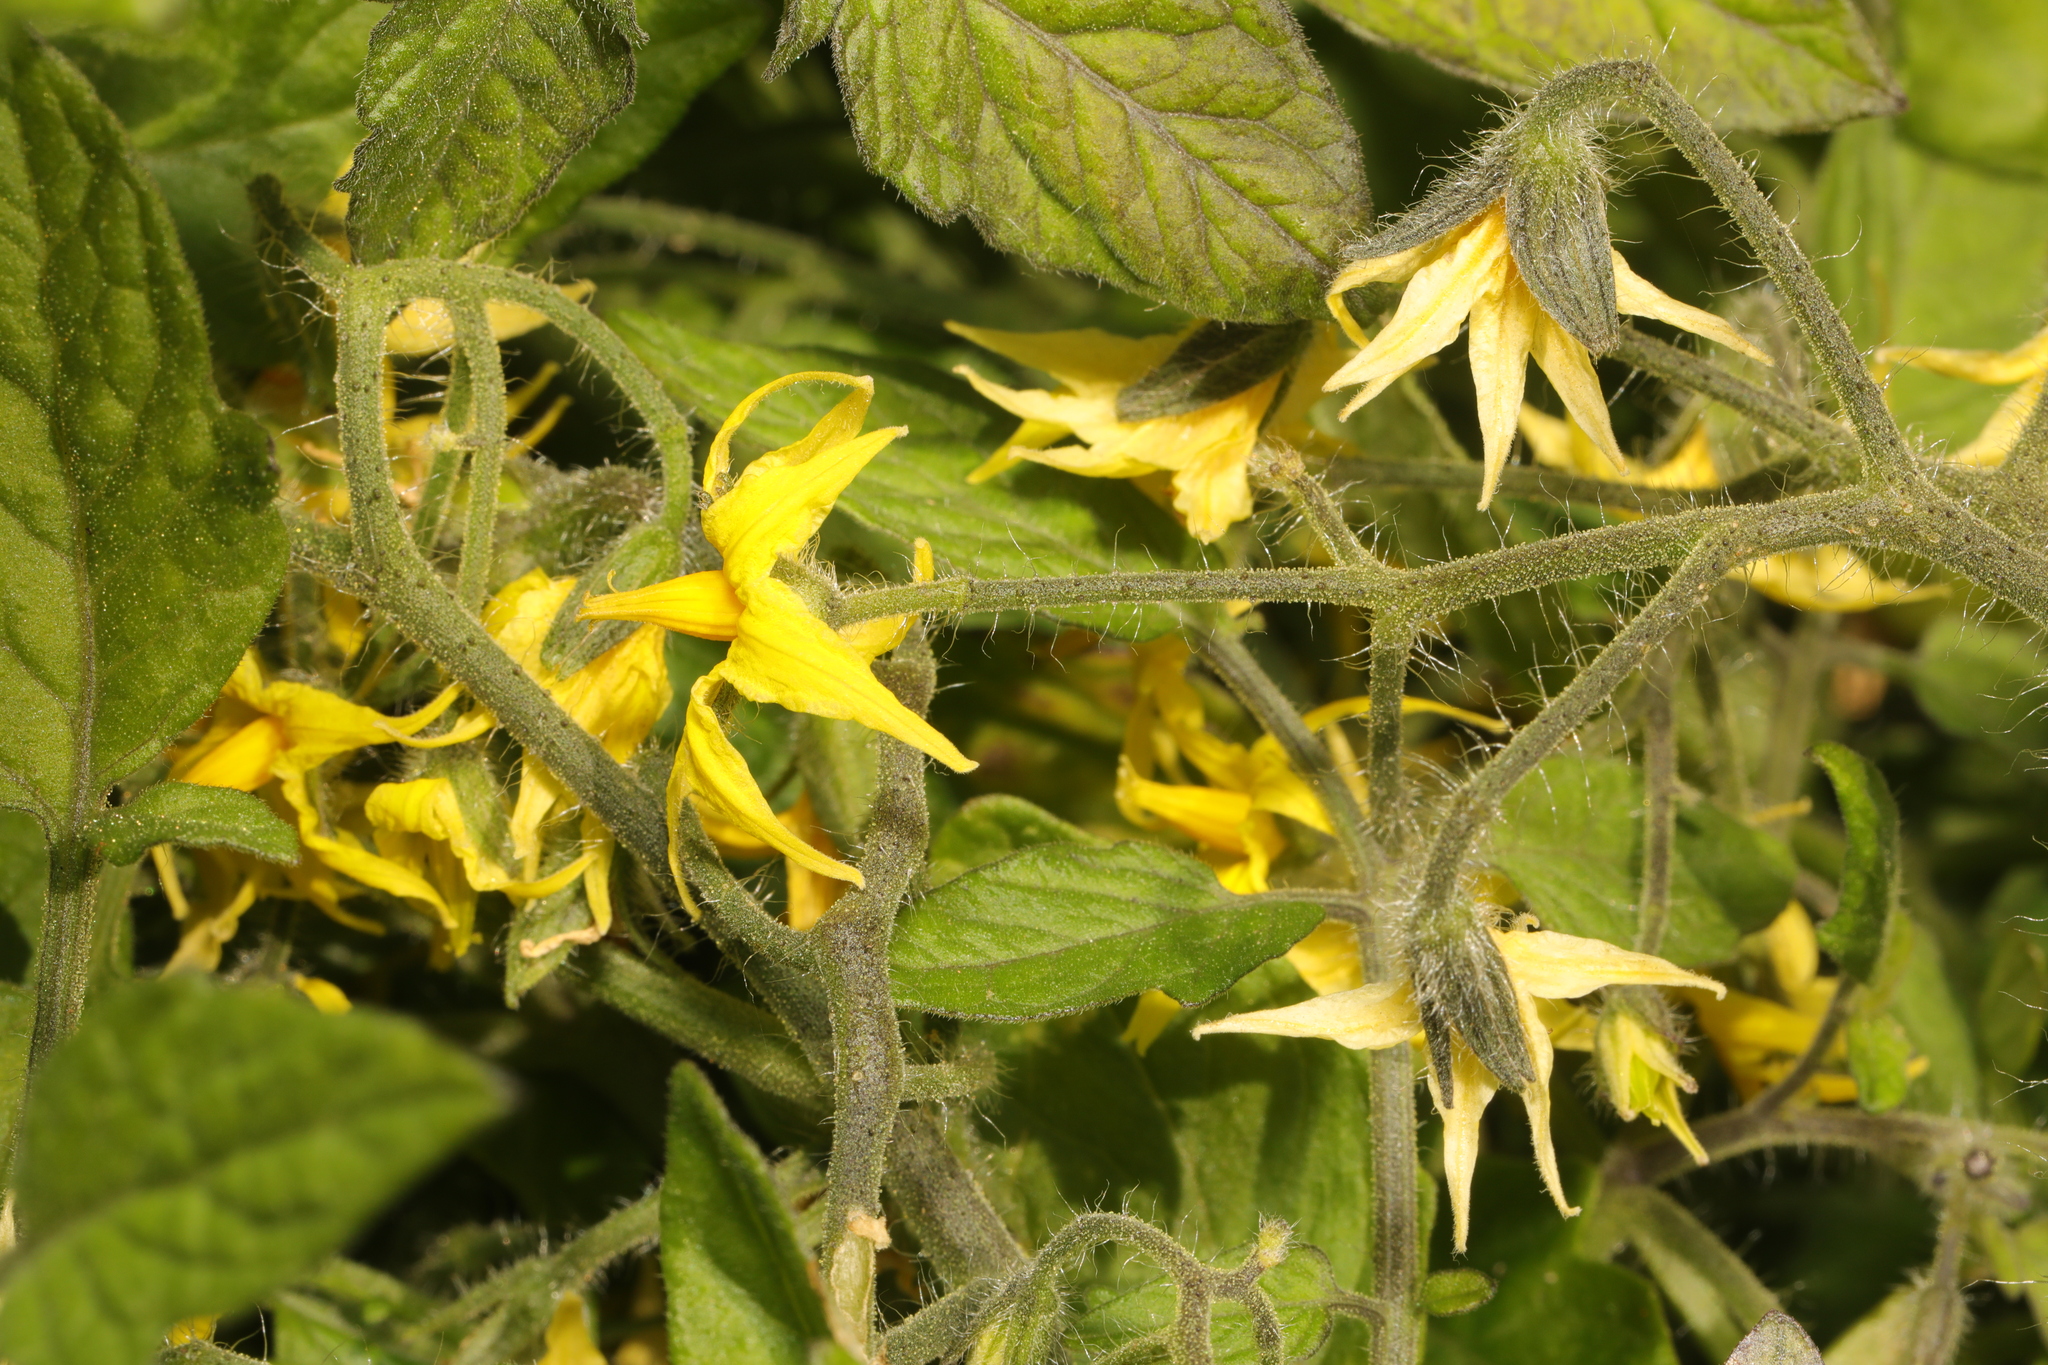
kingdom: Plantae
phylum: Tracheophyta
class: Magnoliopsida
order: Solanales
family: Solanaceae
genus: Solanum
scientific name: Solanum lycopersicum
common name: Garden tomato
